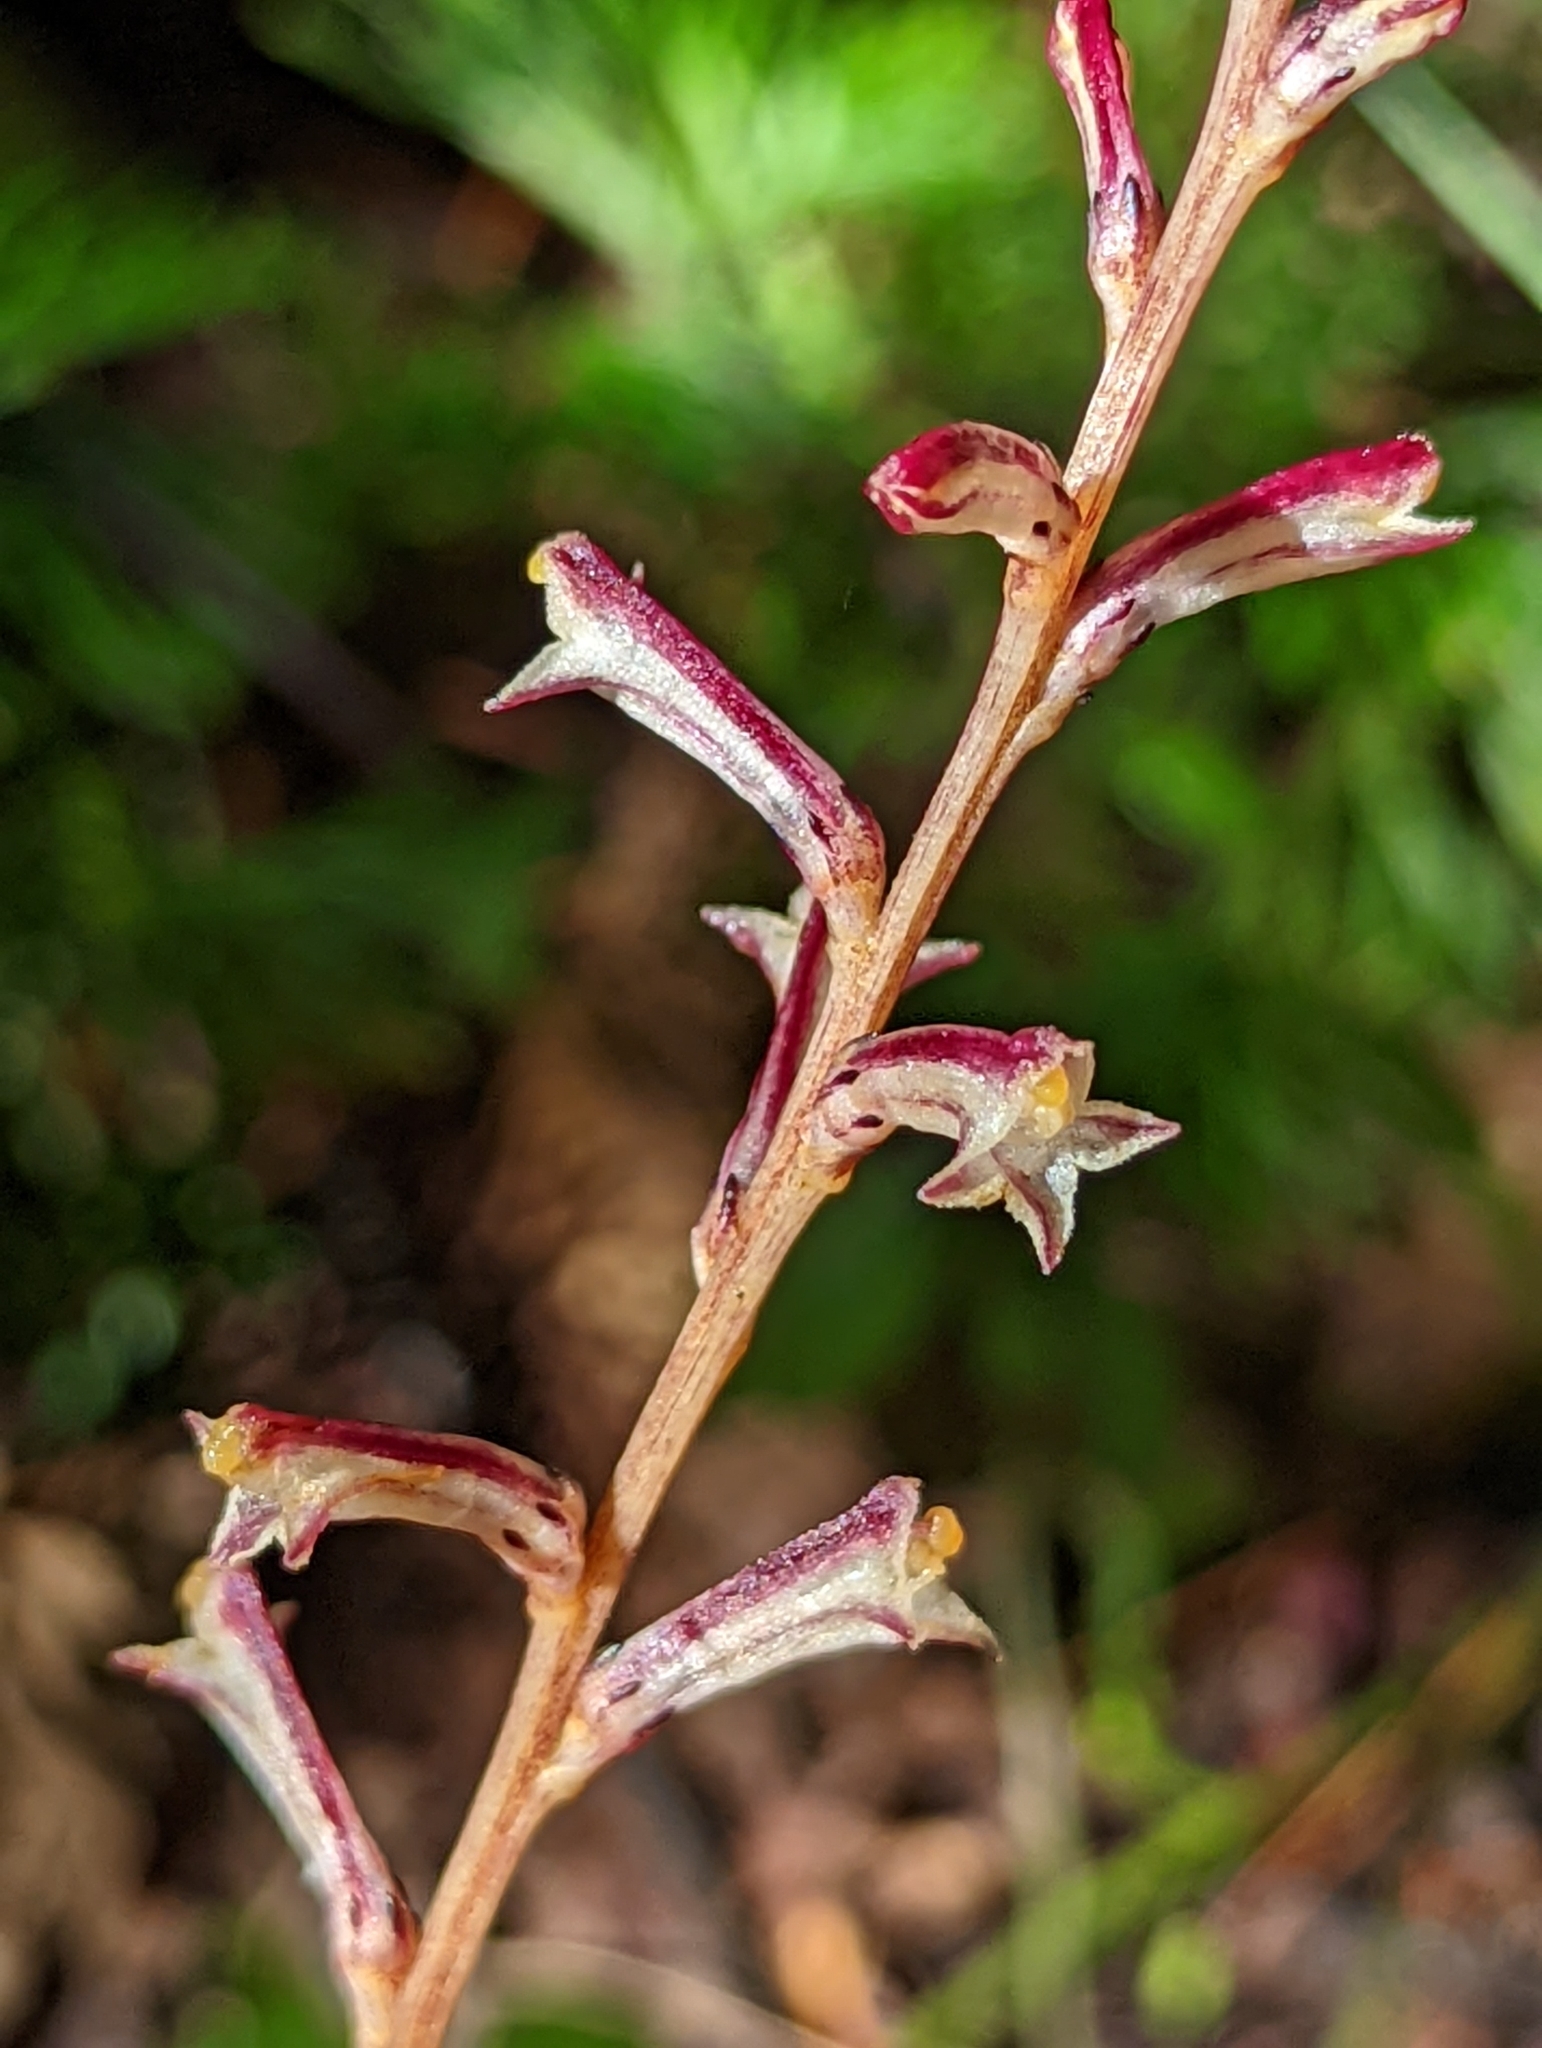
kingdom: Plantae
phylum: Tracheophyta
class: Magnoliopsida
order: Lamiales
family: Orobanchaceae
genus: Epifagus
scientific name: Epifagus virginiana
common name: Beechdrops
